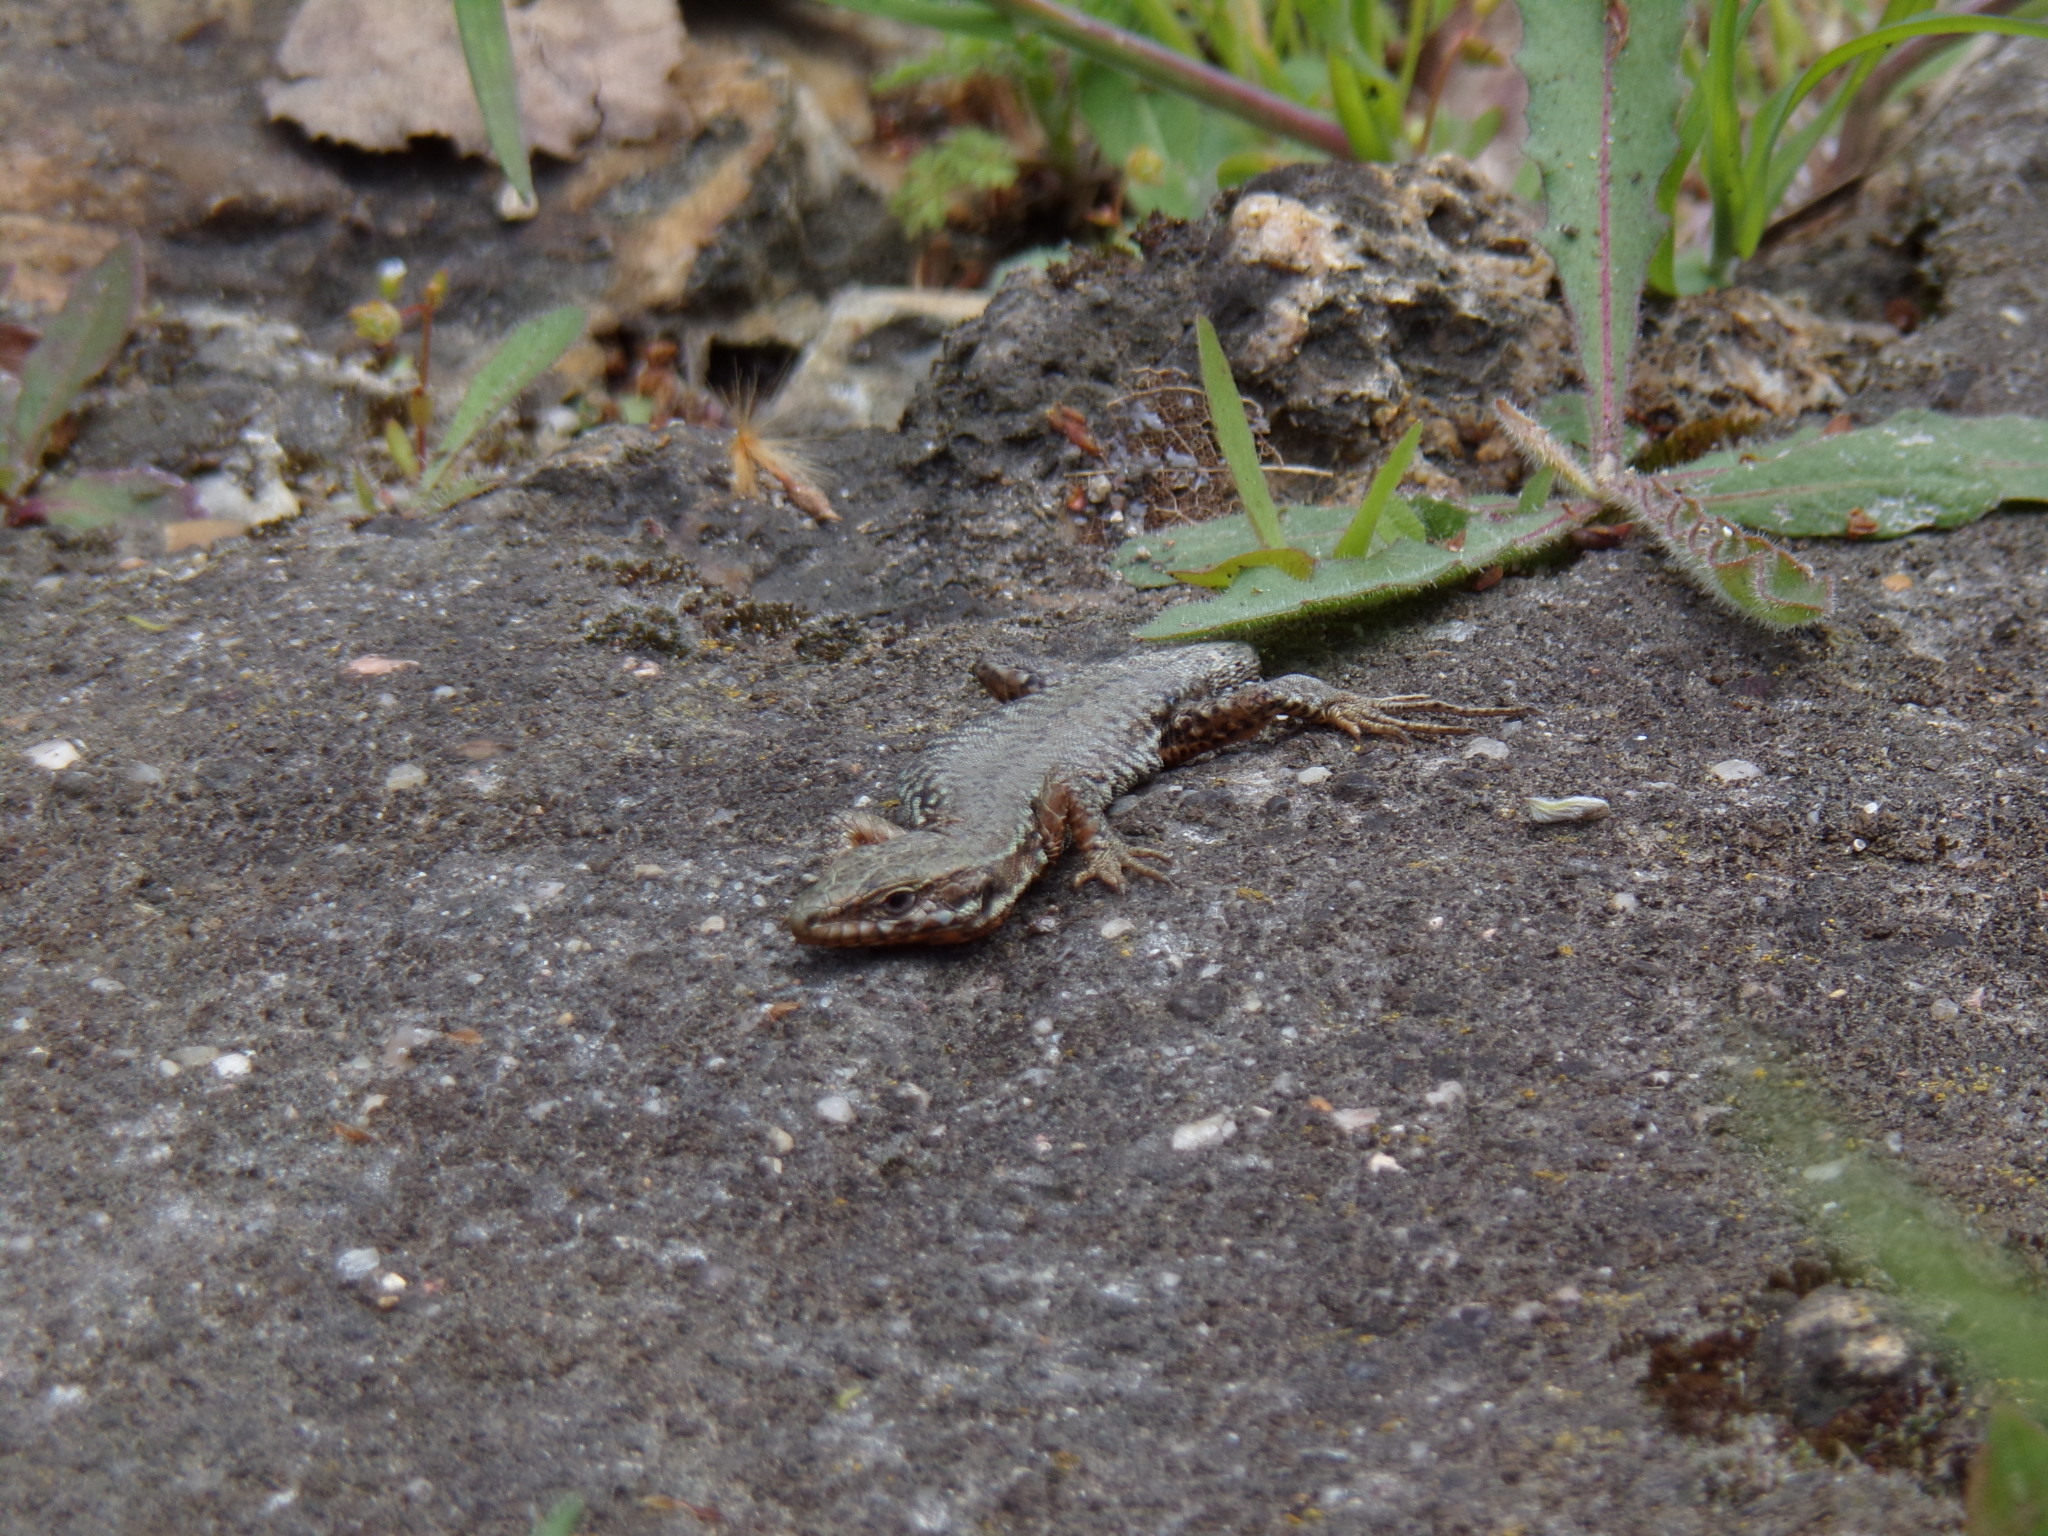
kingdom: Animalia
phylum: Chordata
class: Squamata
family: Lacertidae
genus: Podarcis
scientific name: Podarcis muralis
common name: Common wall lizard
